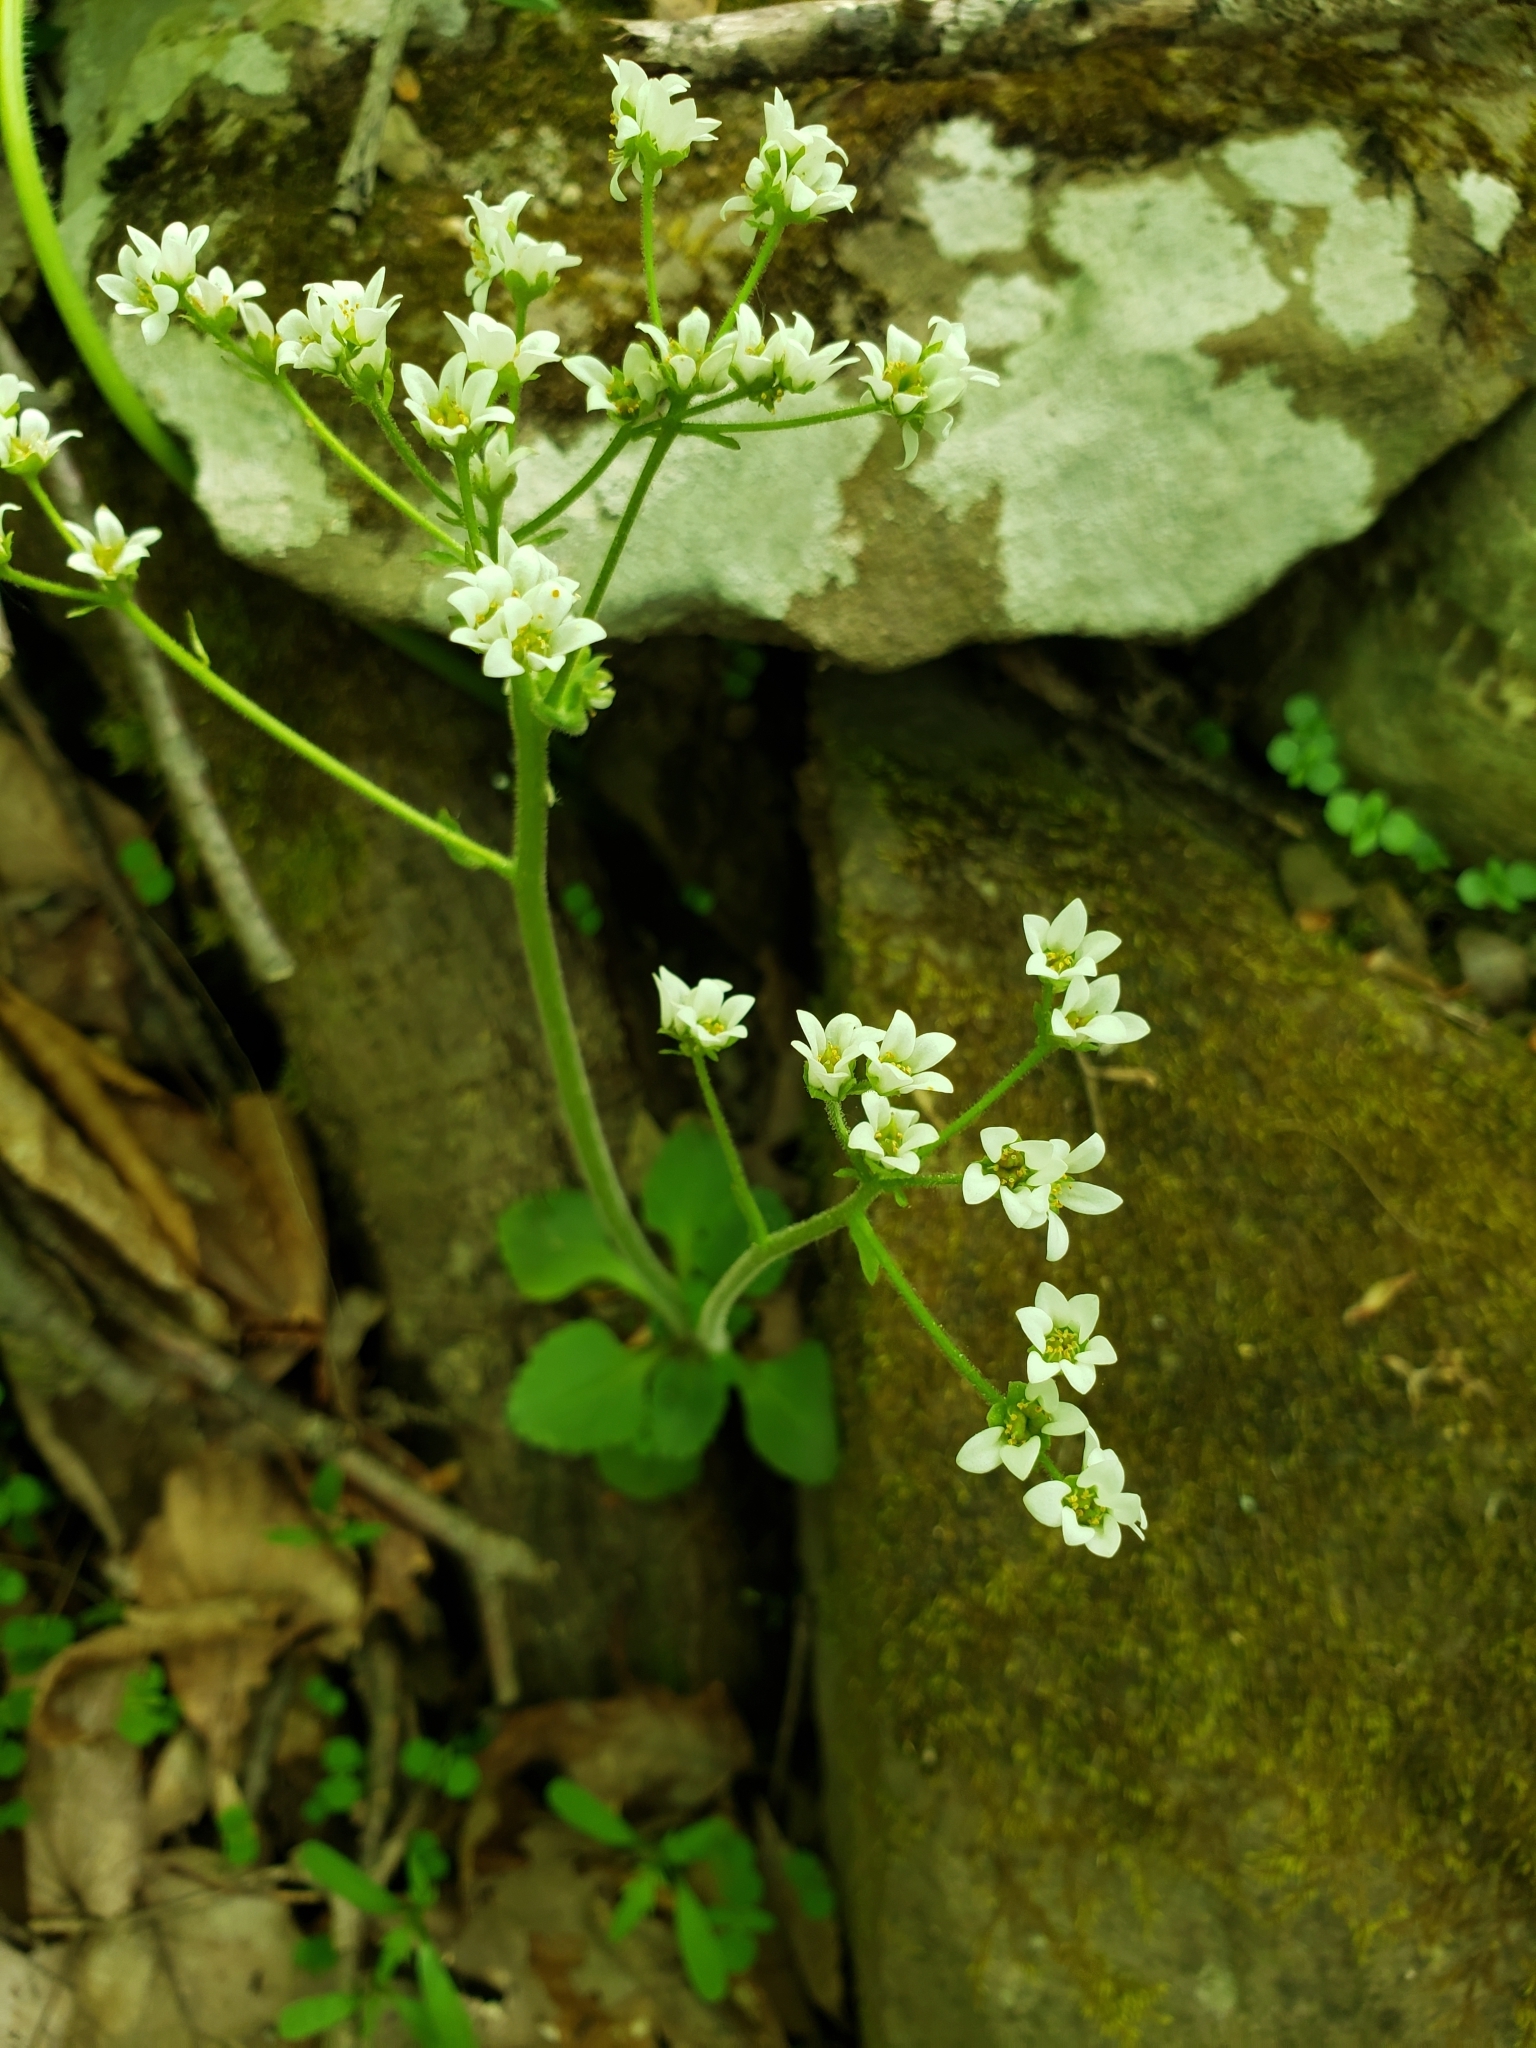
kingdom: Plantae
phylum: Tracheophyta
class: Magnoliopsida
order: Saxifragales
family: Saxifragaceae
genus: Micranthes
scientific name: Micranthes virginiensis
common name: Early saxifrage
